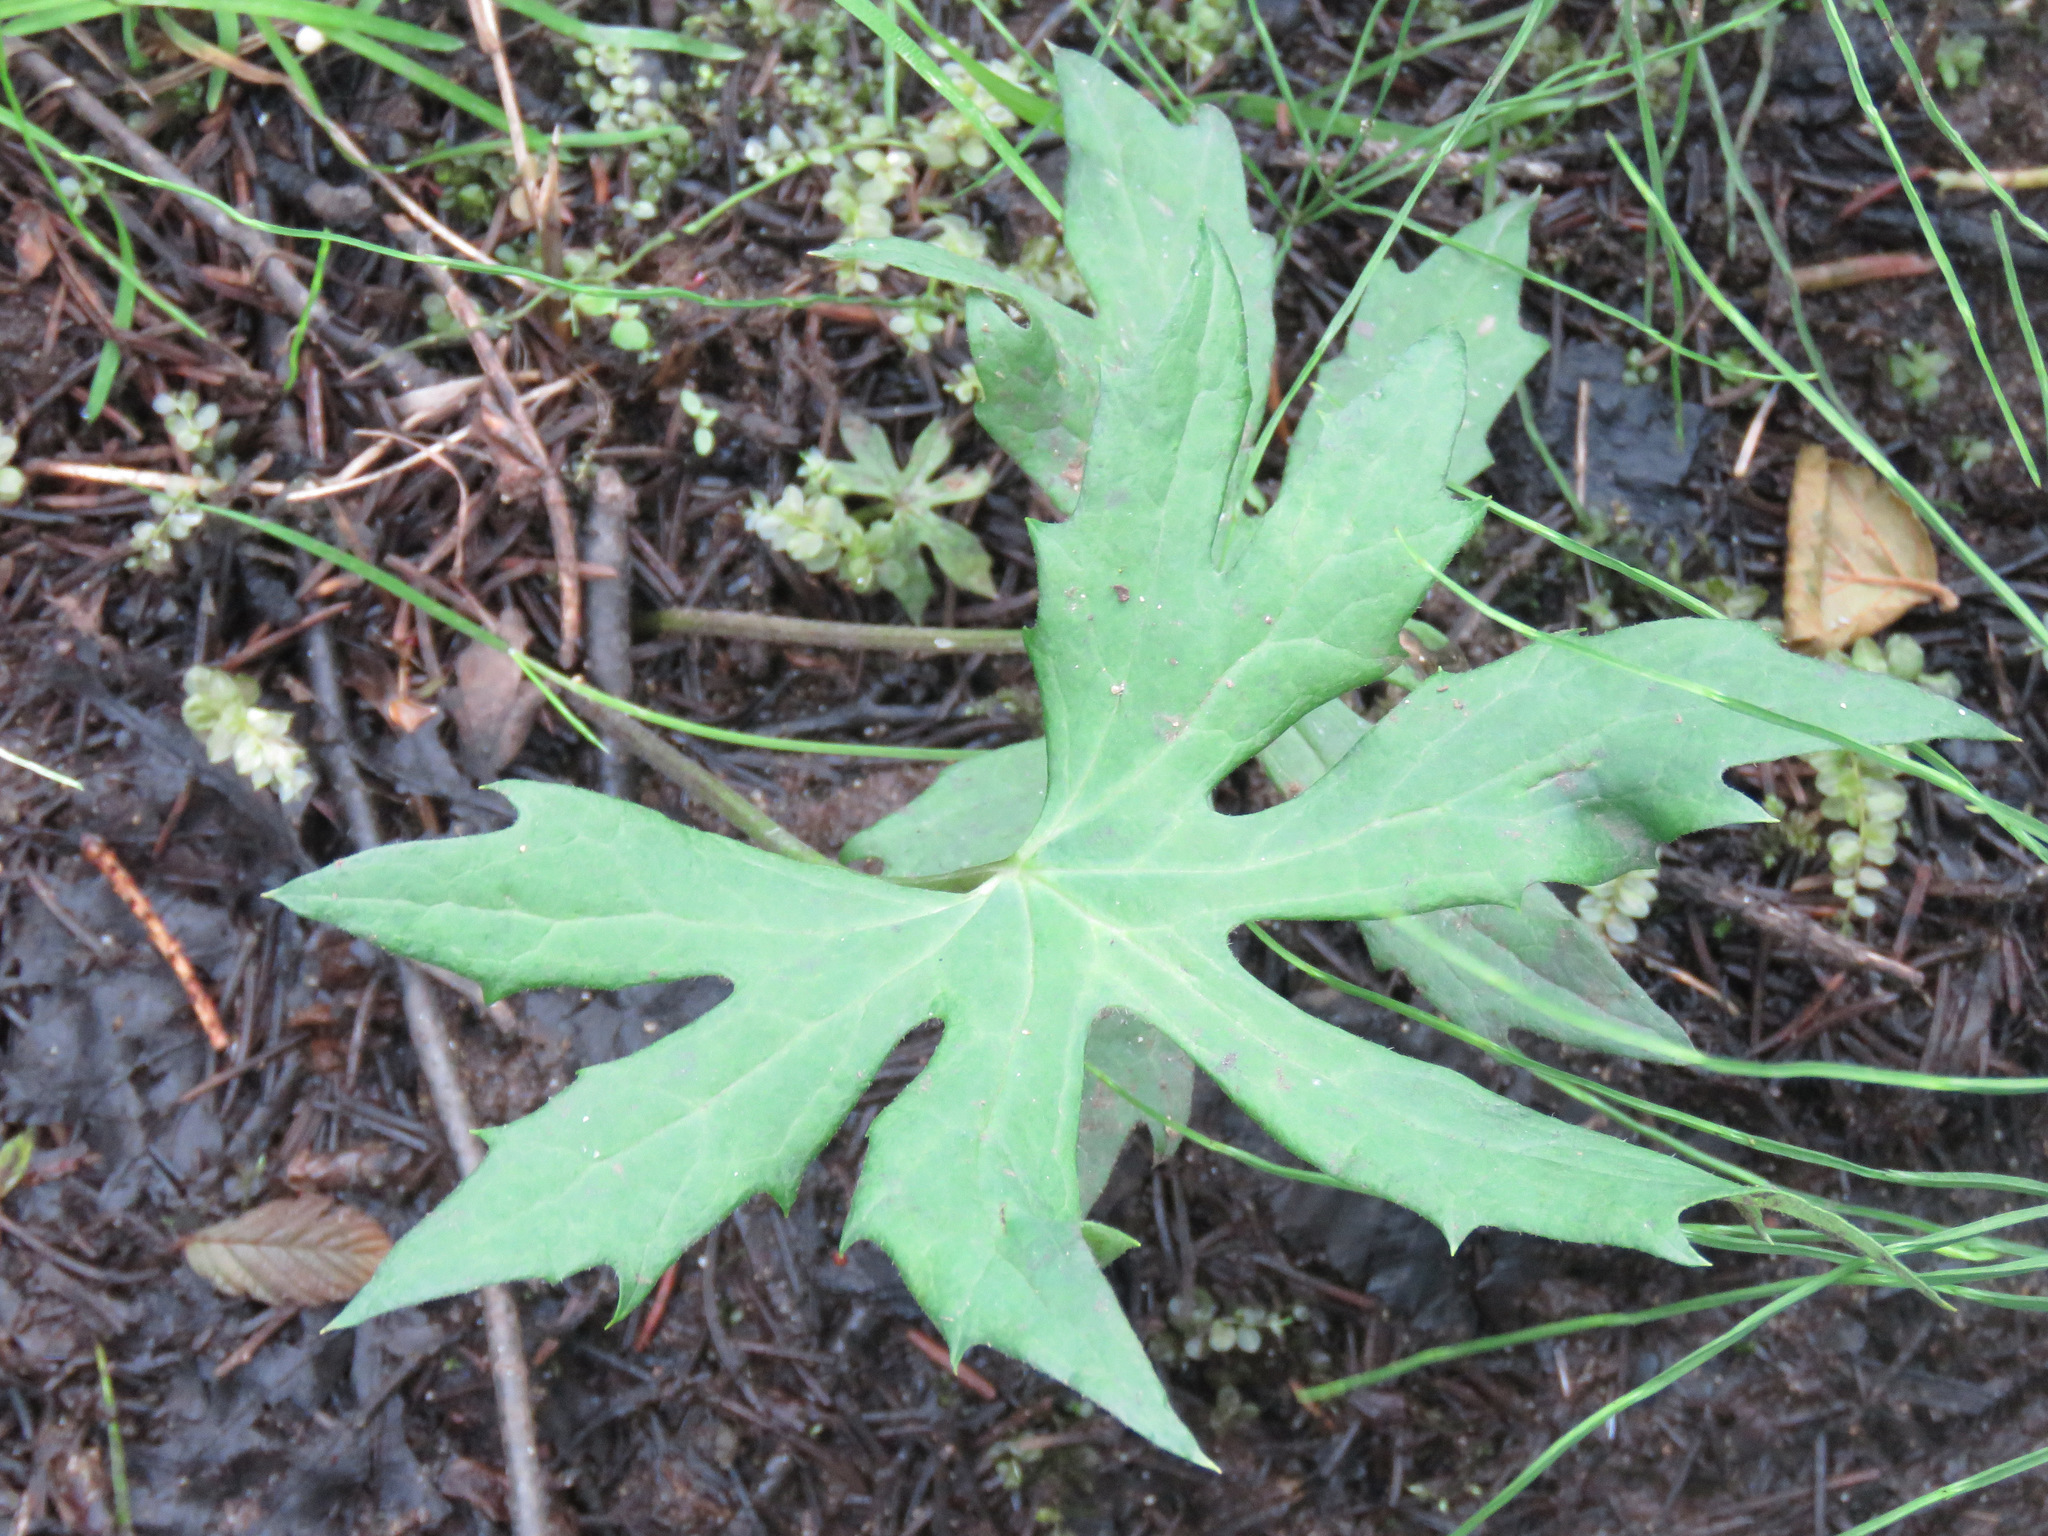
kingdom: Plantae
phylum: Tracheophyta
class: Magnoliopsida
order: Asterales
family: Asteraceae
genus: Petasites
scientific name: Petasites frigidus
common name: Arctic butterbur
